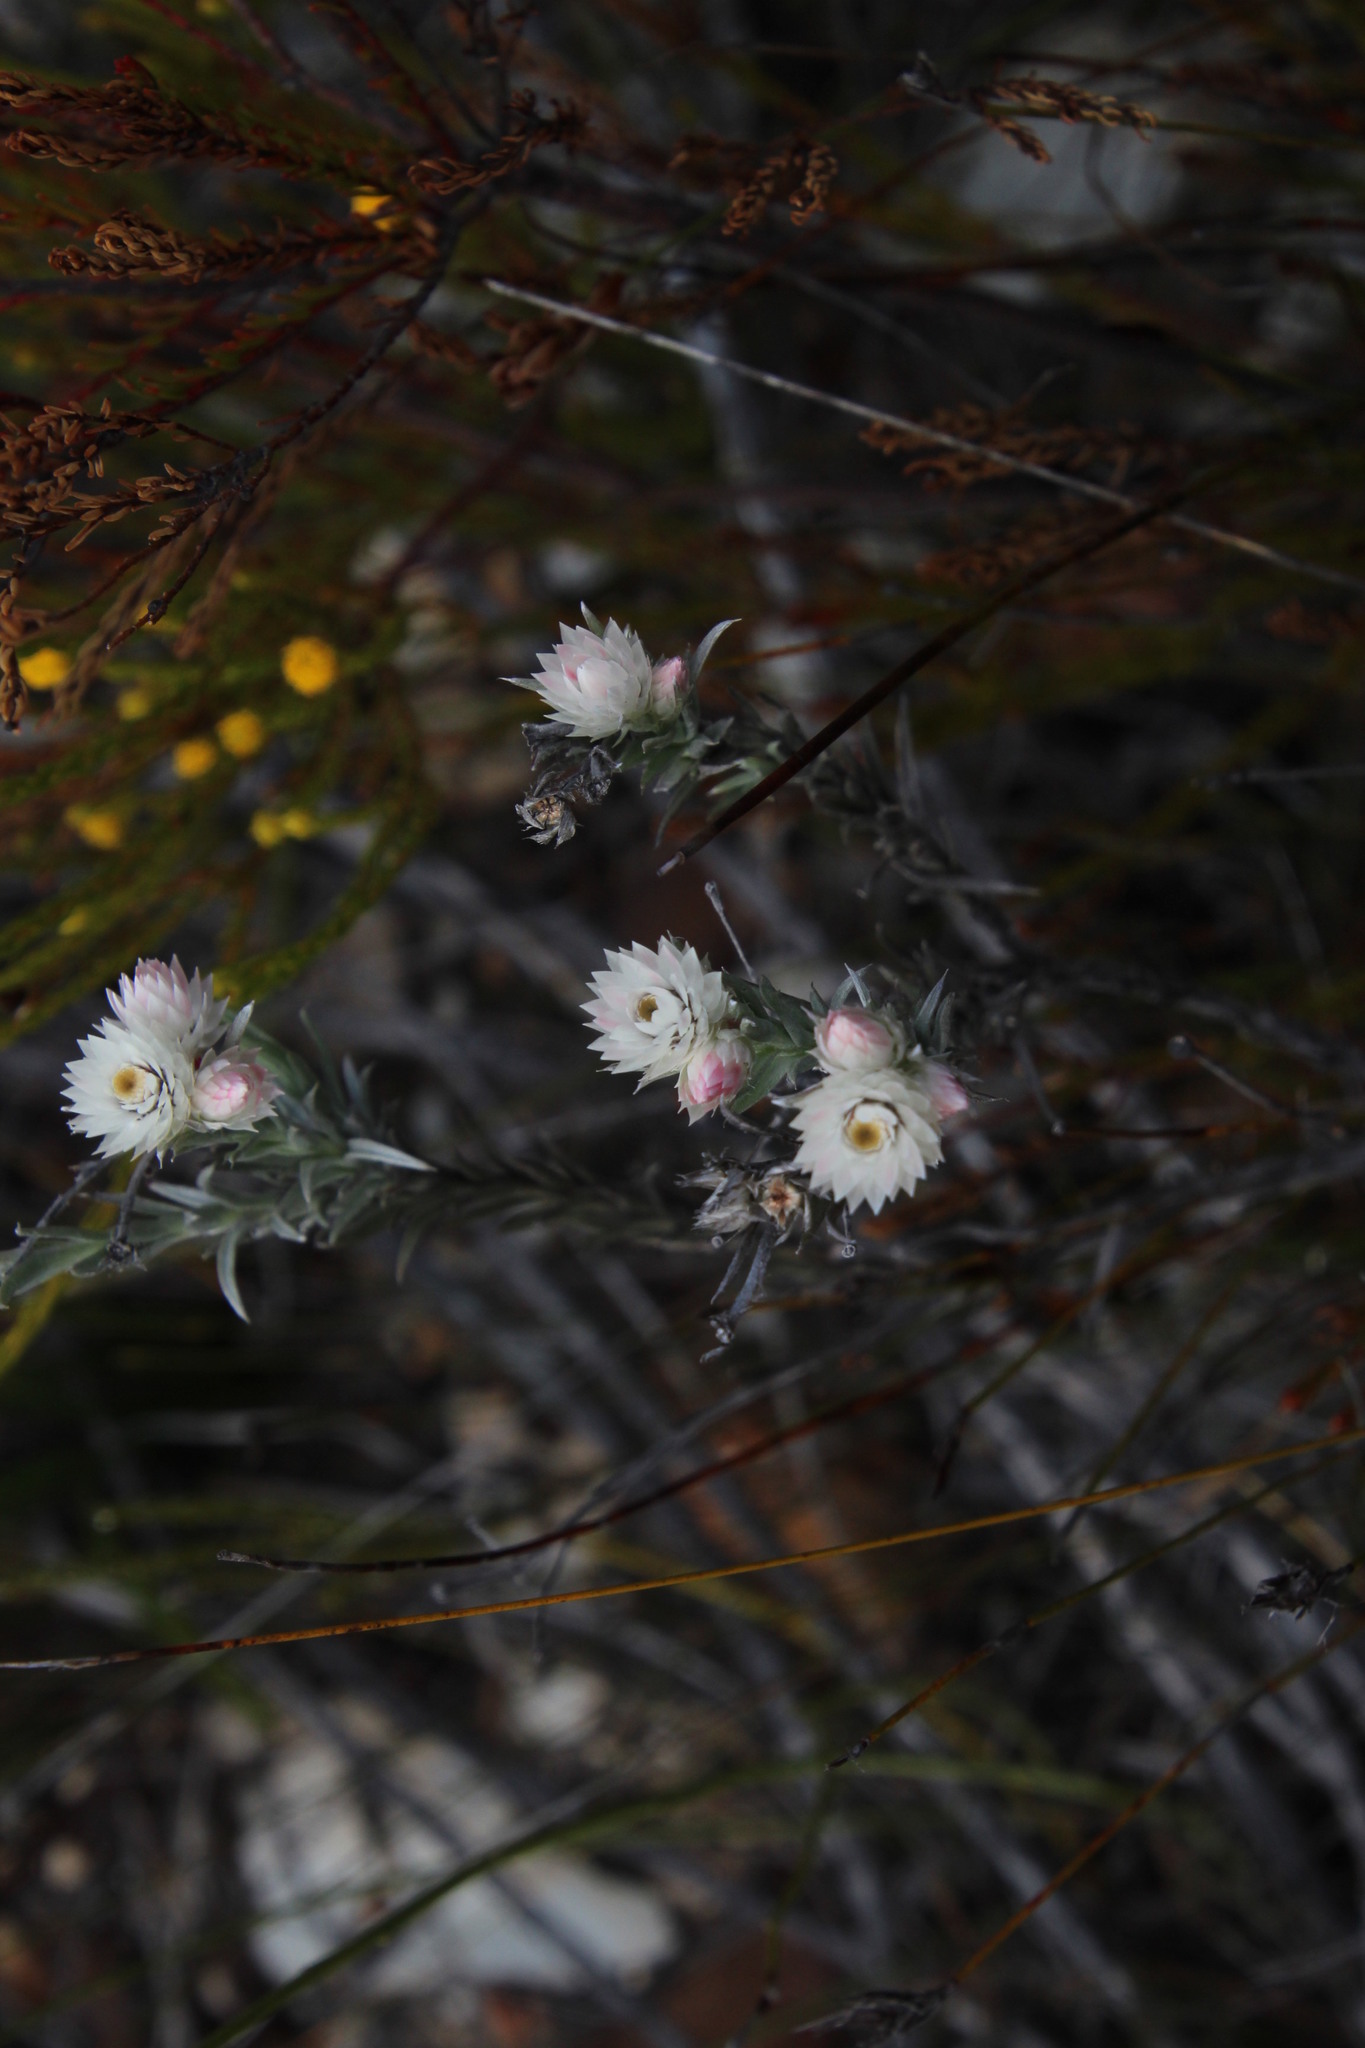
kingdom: Plantae
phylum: Tracheophyta
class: Magnoliopsida
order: Asterales
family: Asteraceae
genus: Achyranthemum
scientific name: Achyranthemum paniculatum
